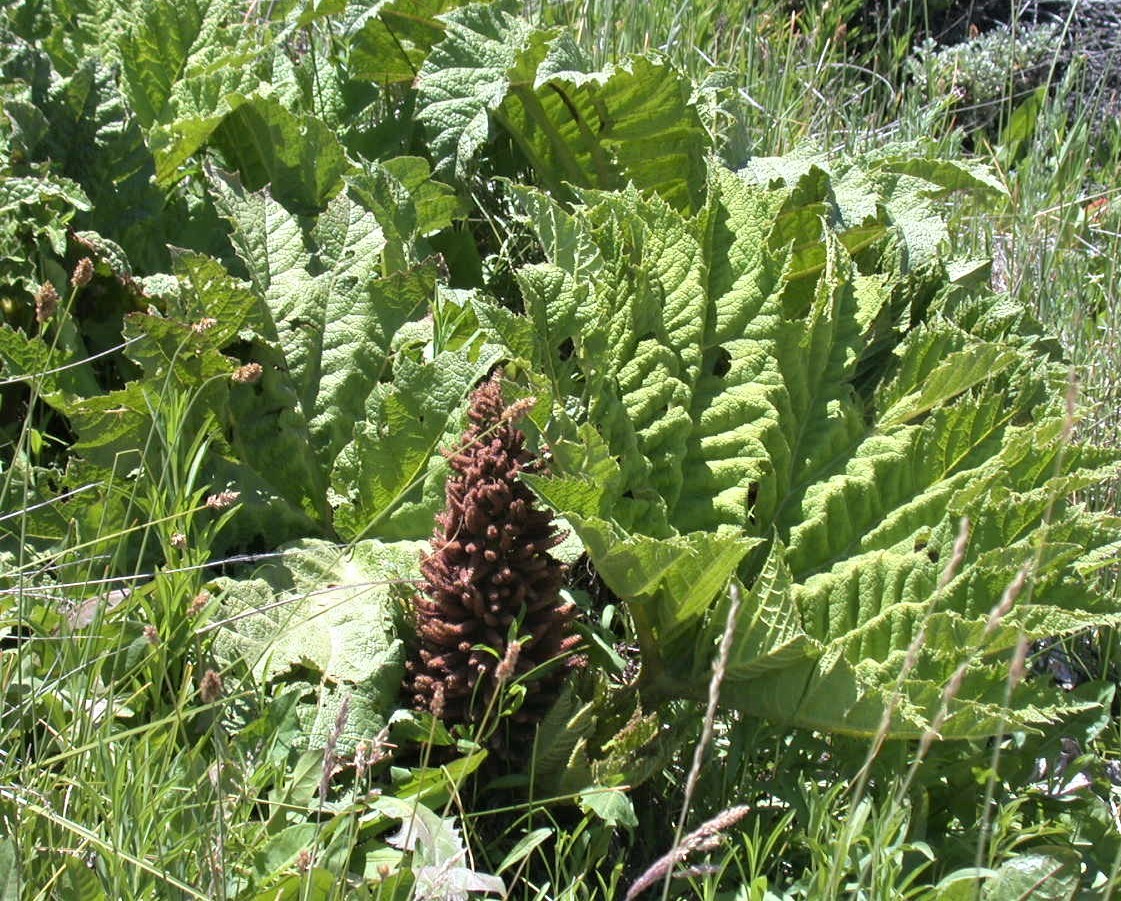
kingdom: Plantae
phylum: Tracheophyta
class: Magnoliopsida
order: Gunnerales
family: Gunneraceae
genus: Gunnera
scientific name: Gunnera tinctoria
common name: Giant-rhubarb
